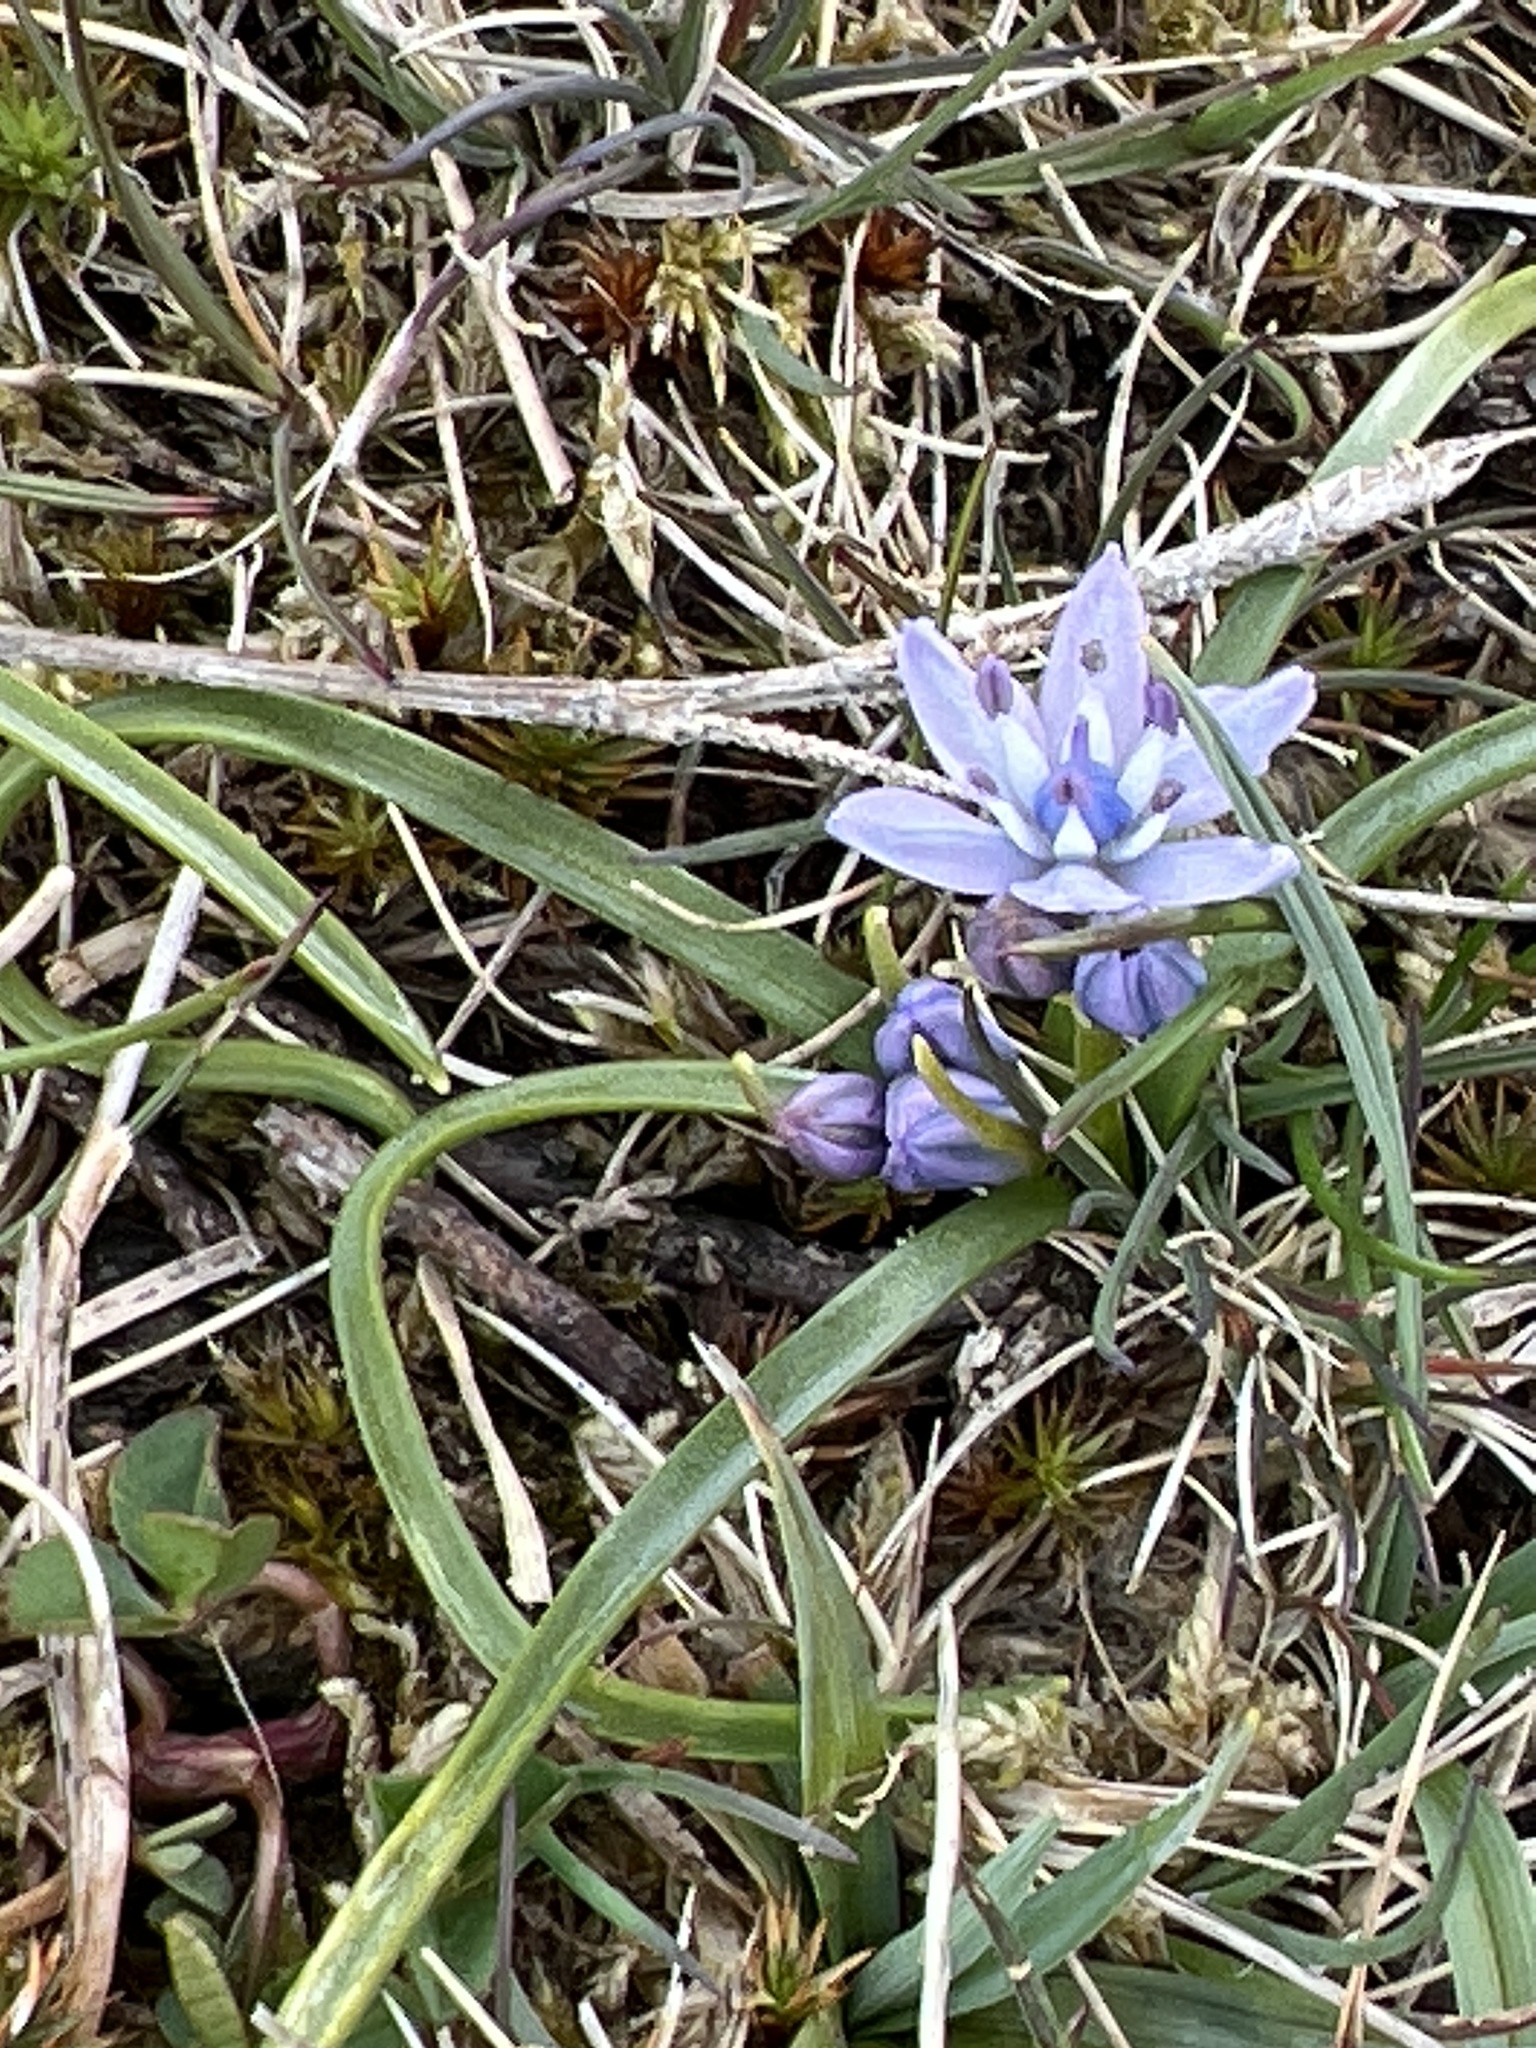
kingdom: Plantae
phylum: Tracheophyta
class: Liliopsida
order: Asparagales
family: Asparagaceae
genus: Scilla
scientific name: Scilla verna
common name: Spring squill
